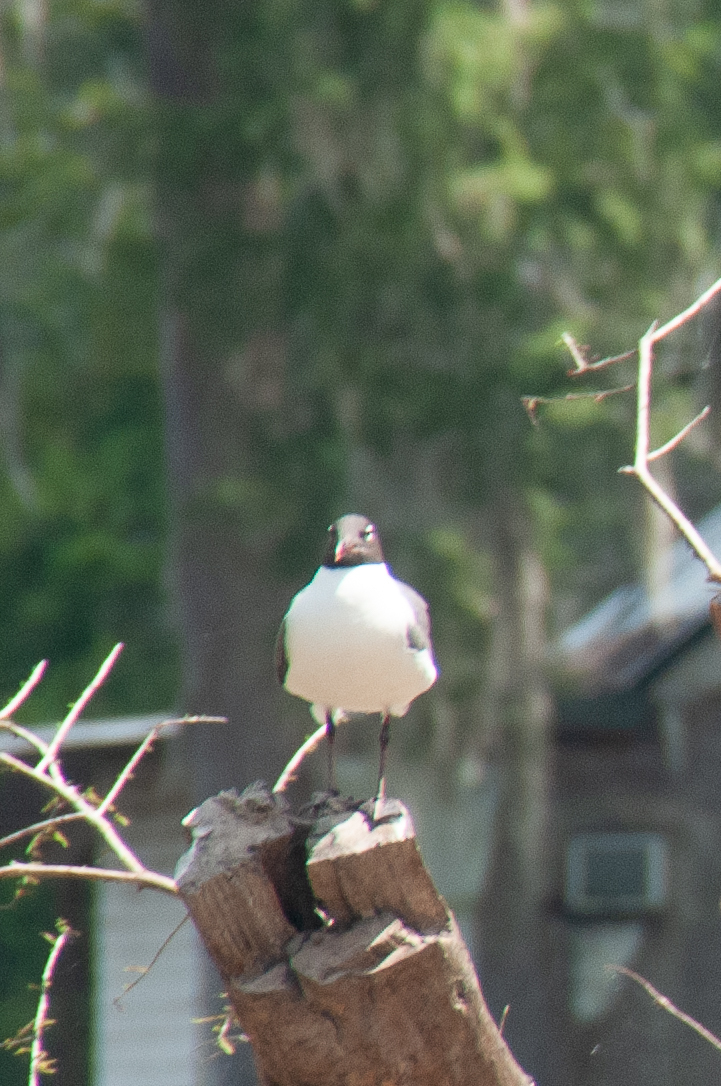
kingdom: Animalia
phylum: Chordata
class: Aves
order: Charadriiformes
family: Laridae
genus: Leucophaeus
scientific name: Leucophaeus atricilla
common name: Laughing gull
